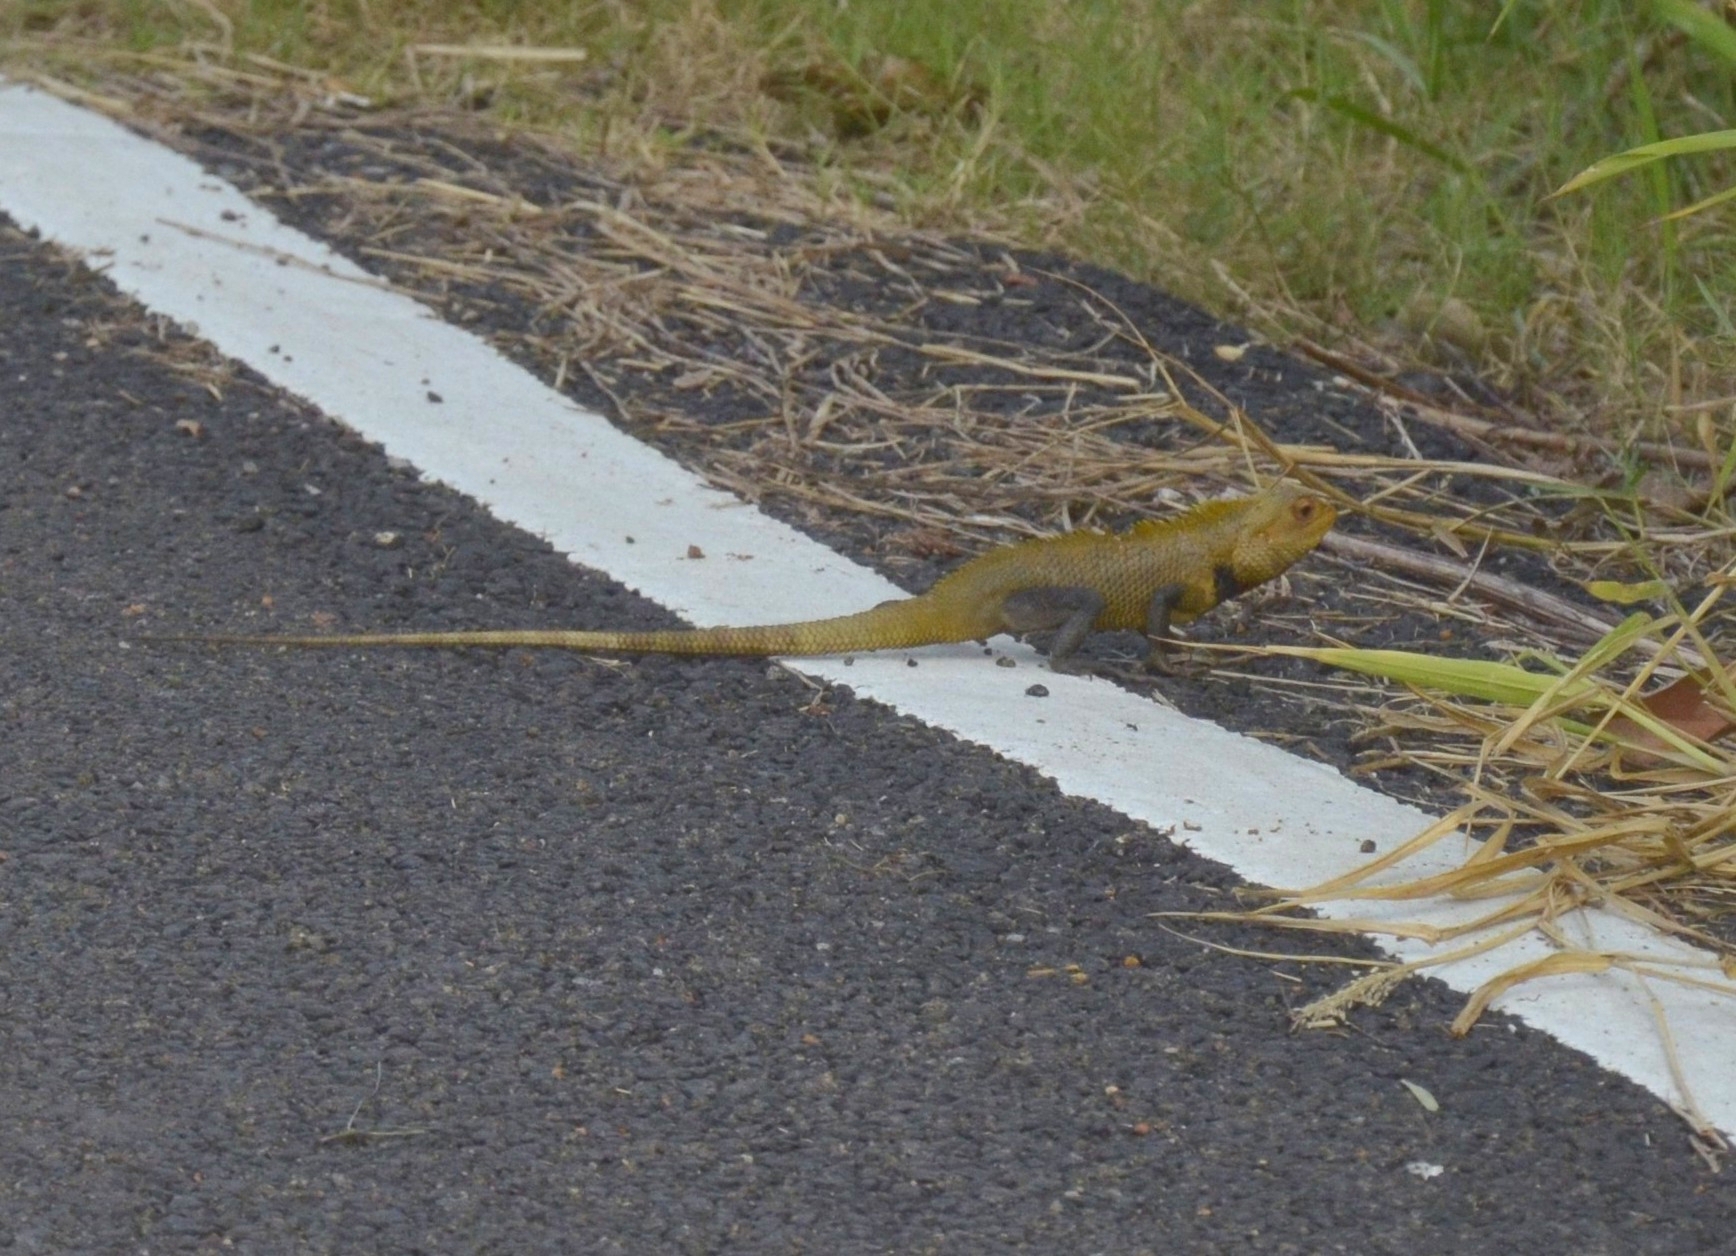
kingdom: Animalia
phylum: Chordata
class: Squamata
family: Agamidae
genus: Calotes
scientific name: Calotes versicolor
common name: Oriental garden lizard
